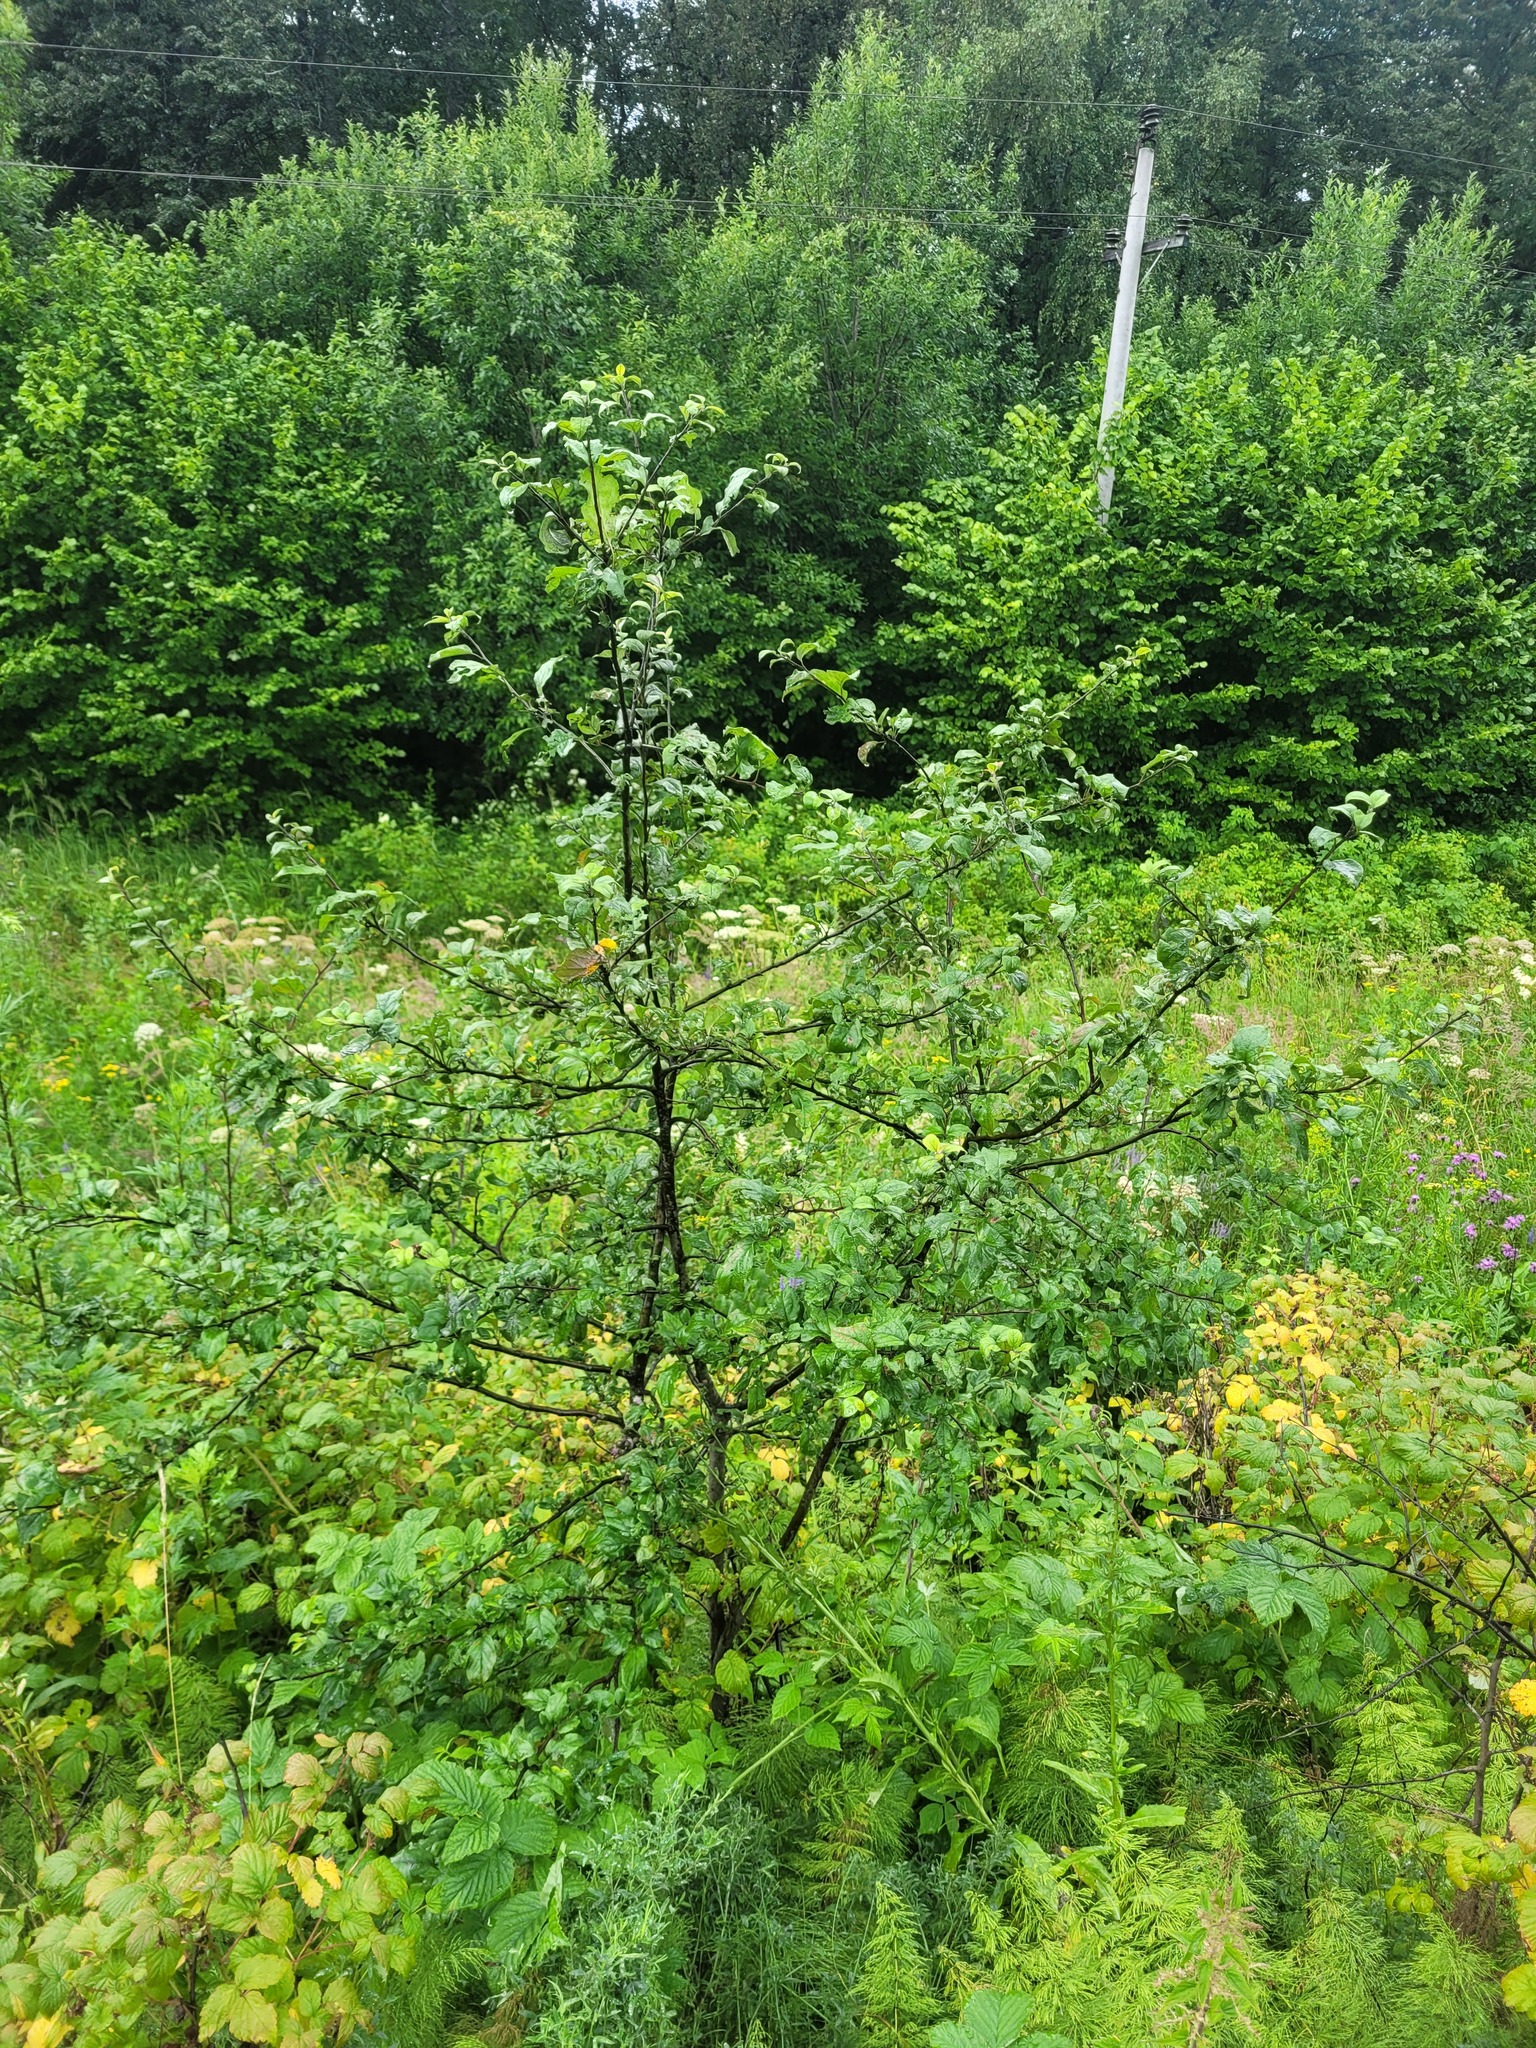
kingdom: Plantae
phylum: Tracheophyta
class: Magnoliopsida
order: Rosales
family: Rosaceae
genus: Malus
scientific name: Malus domestica
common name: Apple
